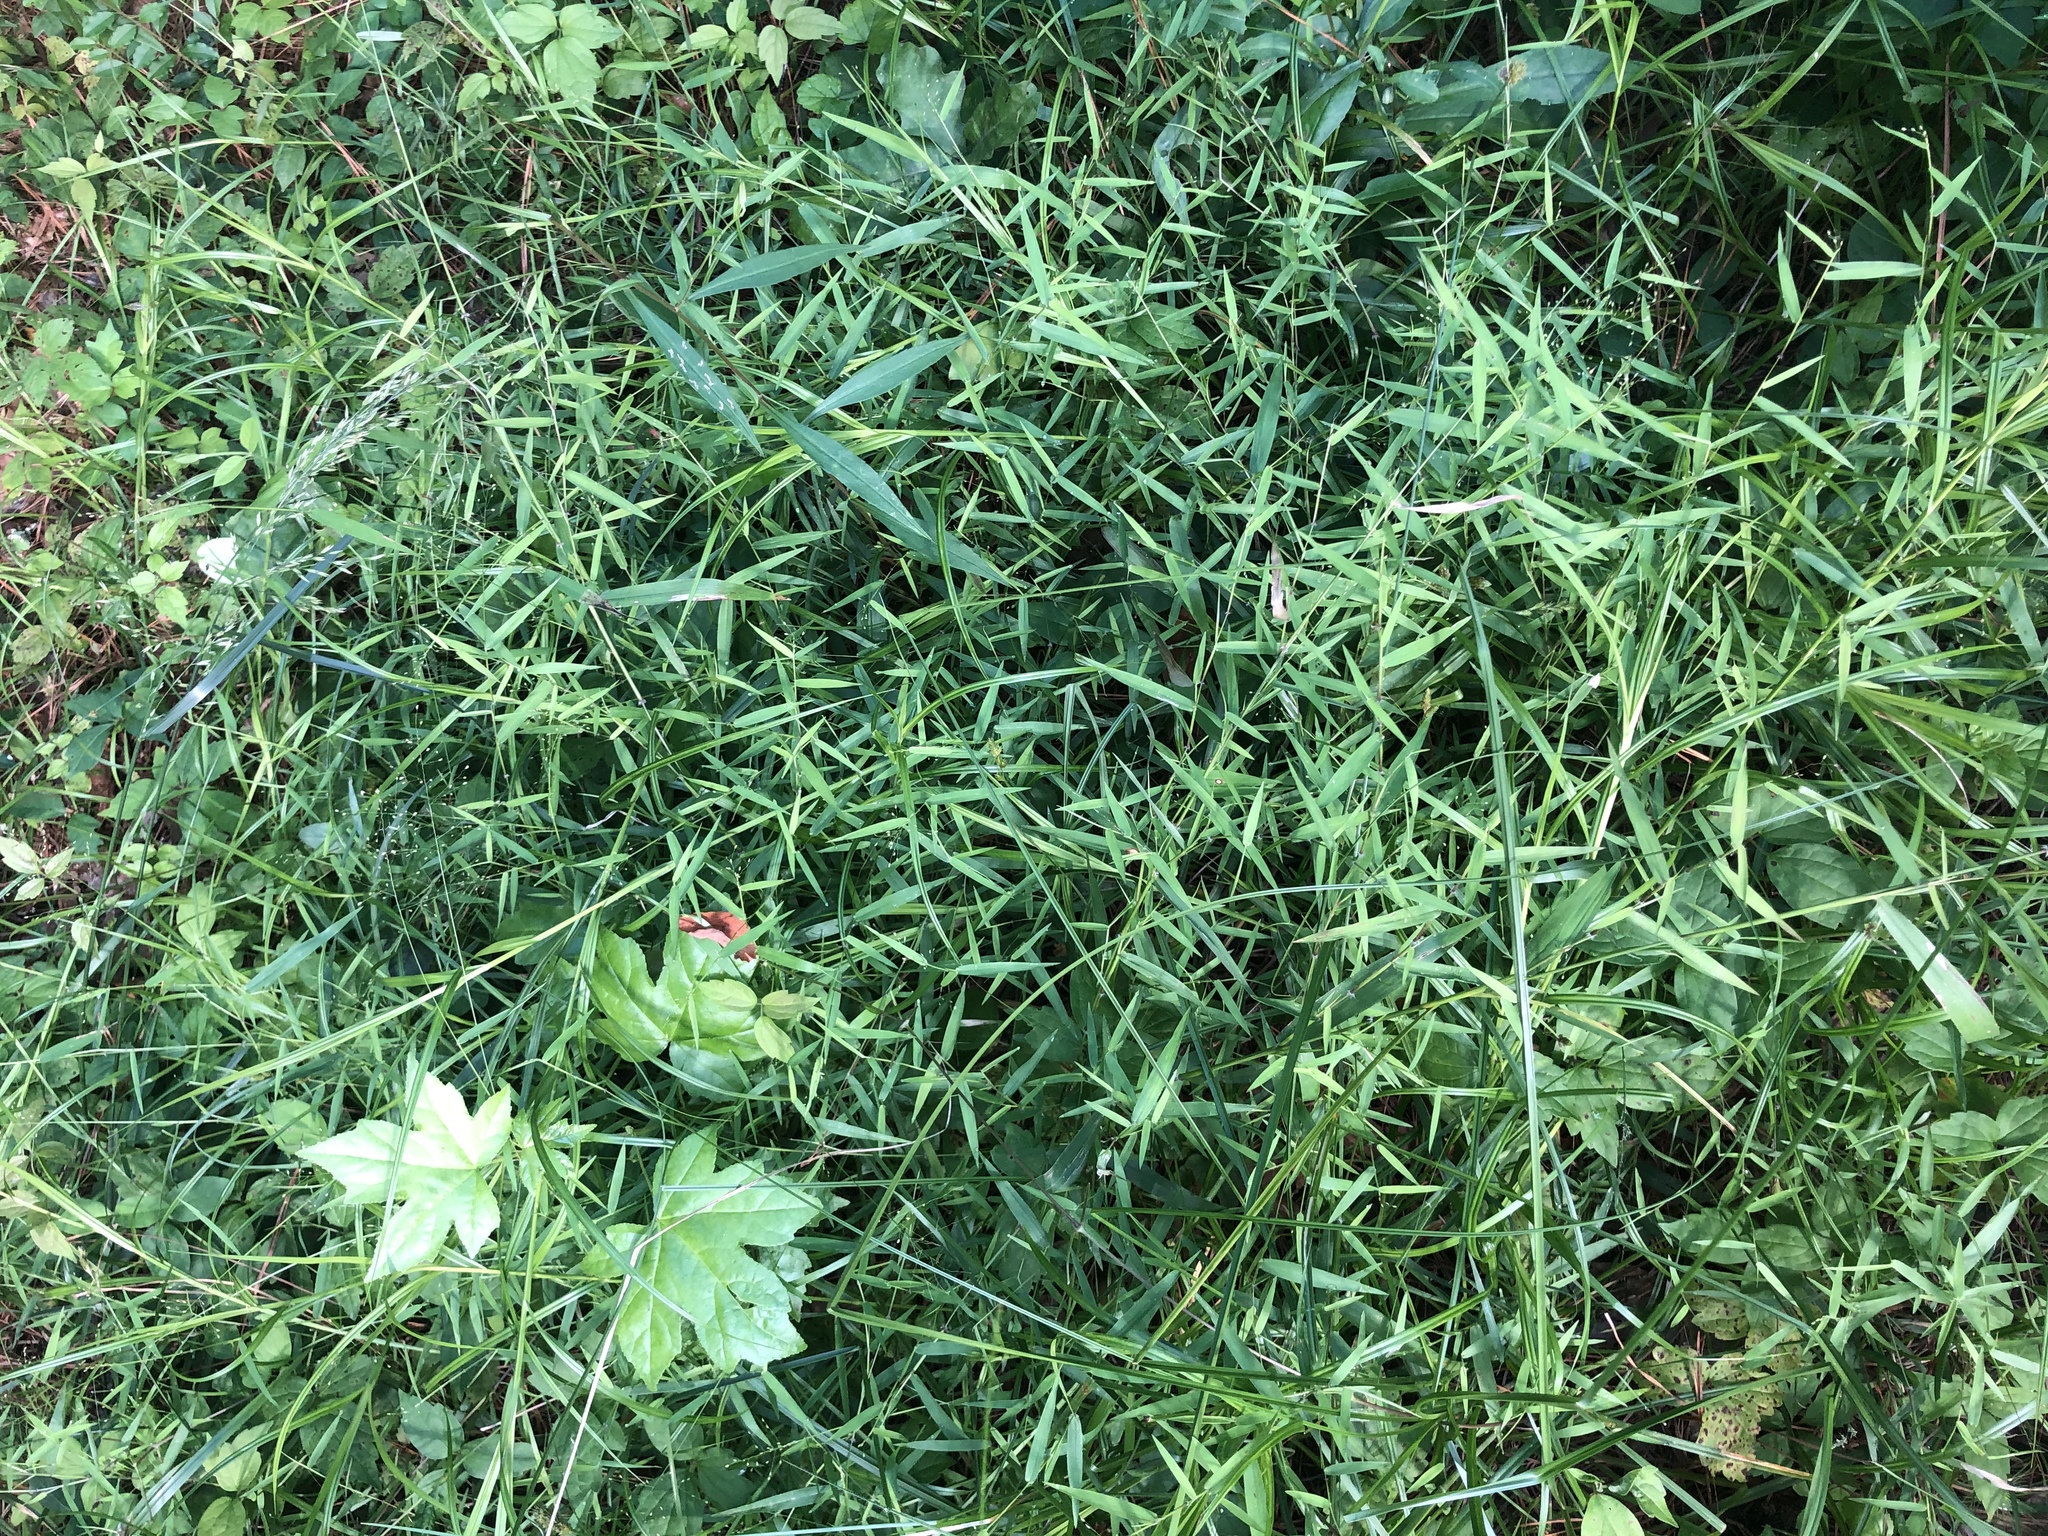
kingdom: Plantae
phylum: Tracheophyta
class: Liliopsida
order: Poales
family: Poaceae
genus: Dichanthelium
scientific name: Dichanthelium microcarpon
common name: Small-fruited witchgrass
